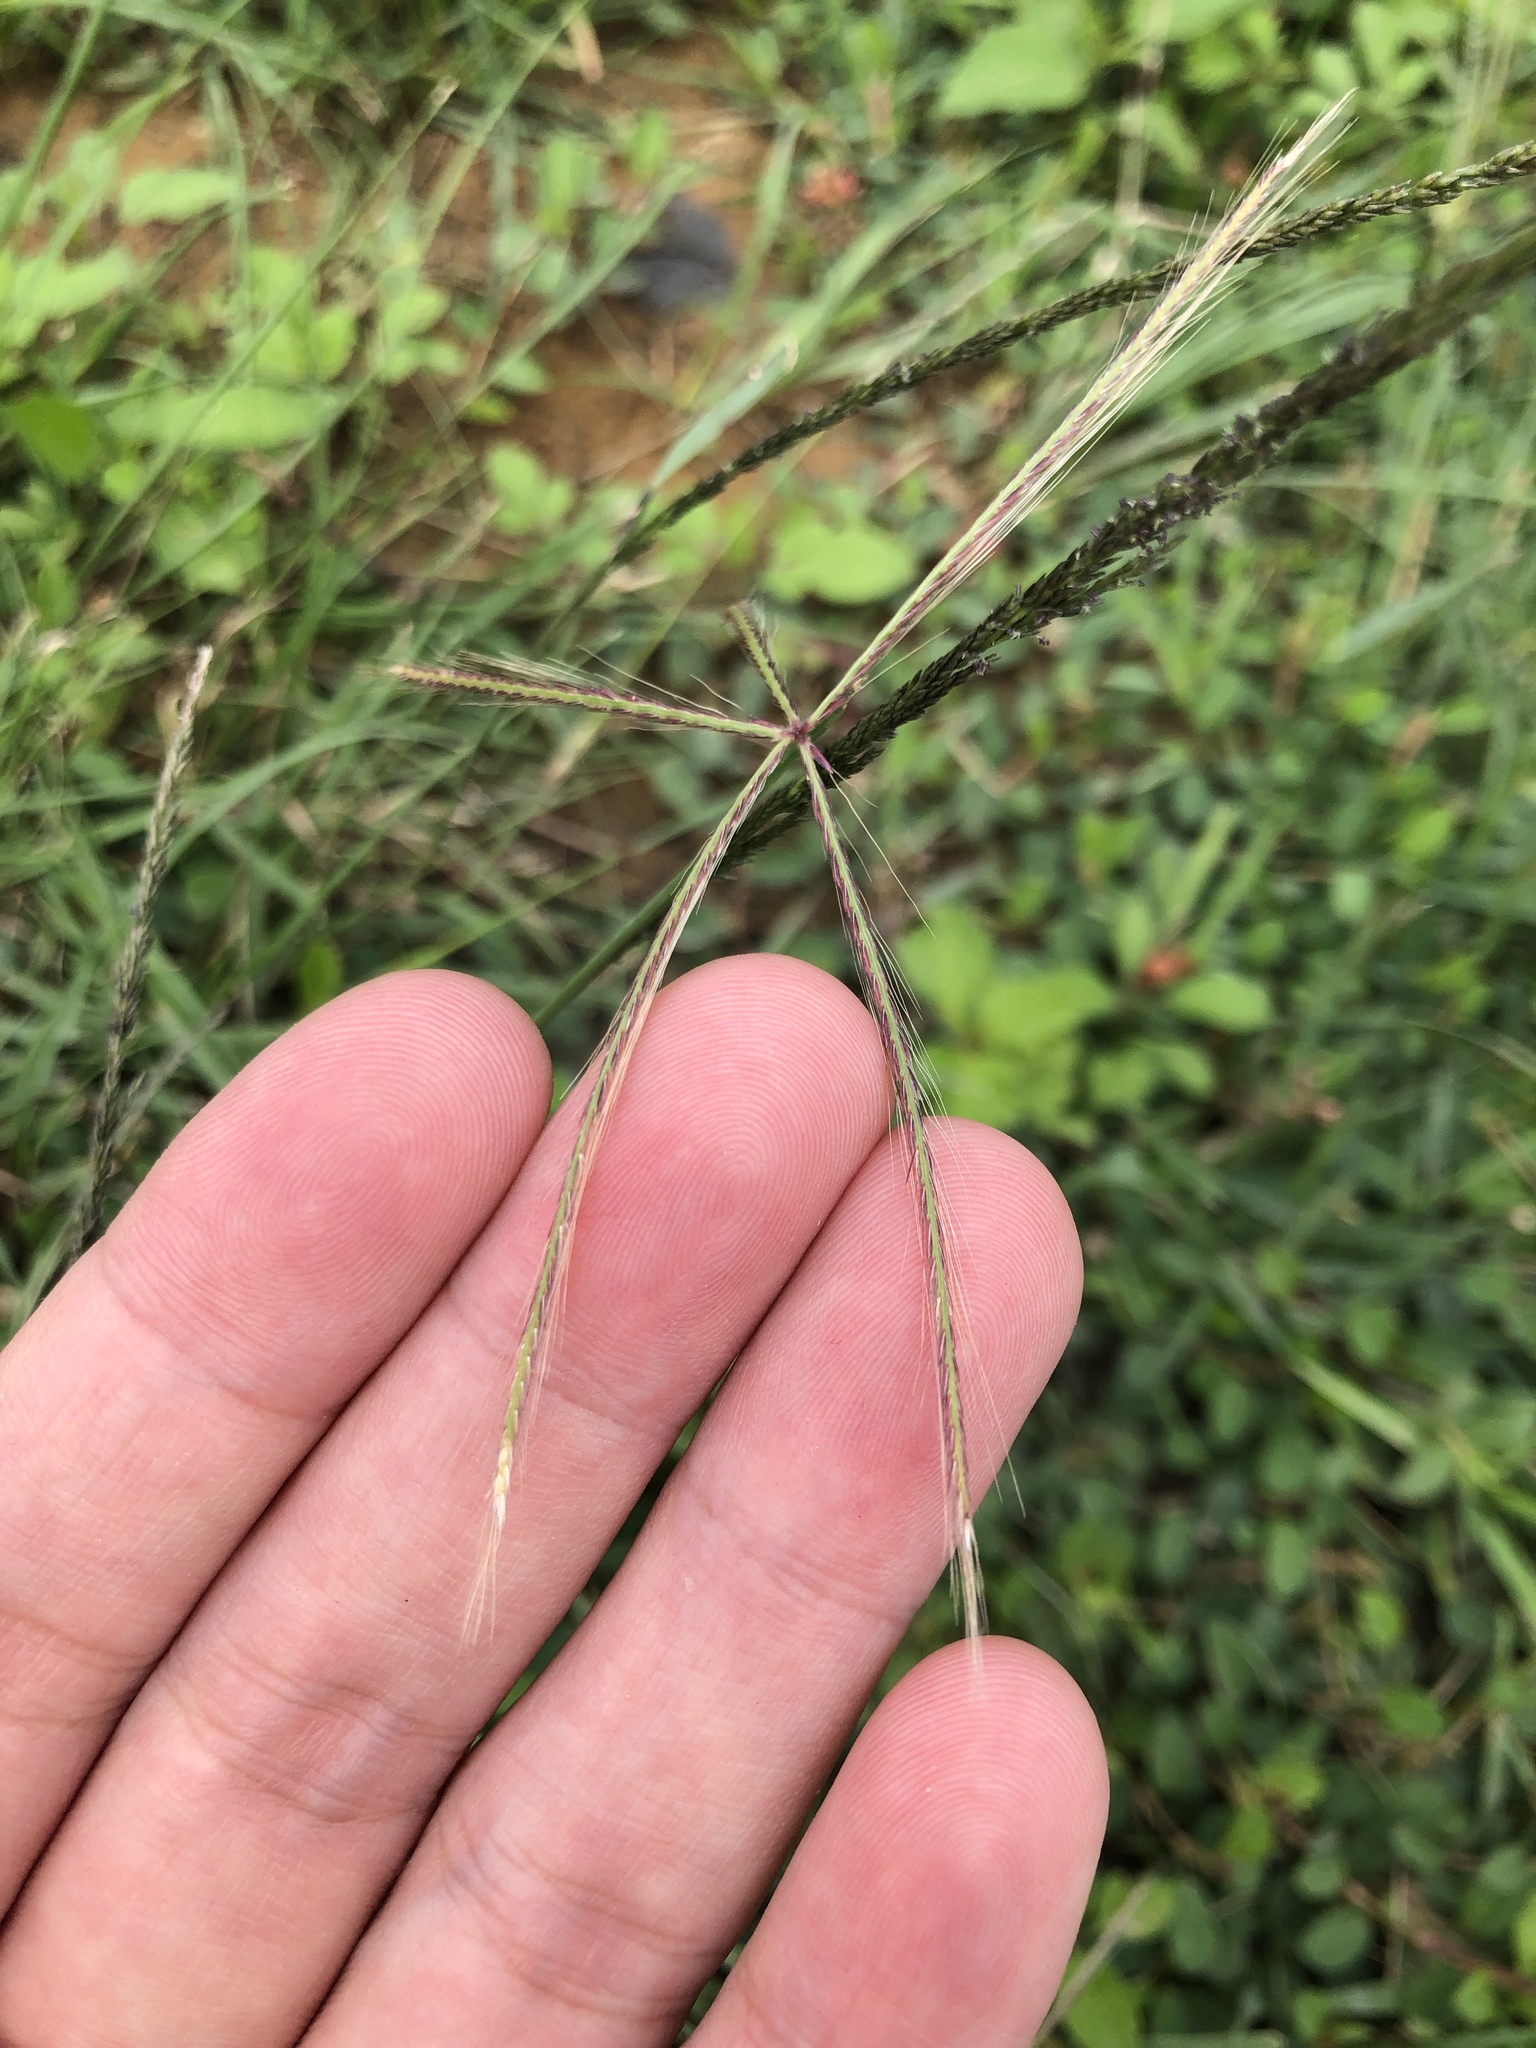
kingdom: Plantae
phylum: Tracheophyta
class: Liliopsida
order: Poales
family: Poaceae
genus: Chloris
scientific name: Chloris divaricata
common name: Spreading windmill grass
